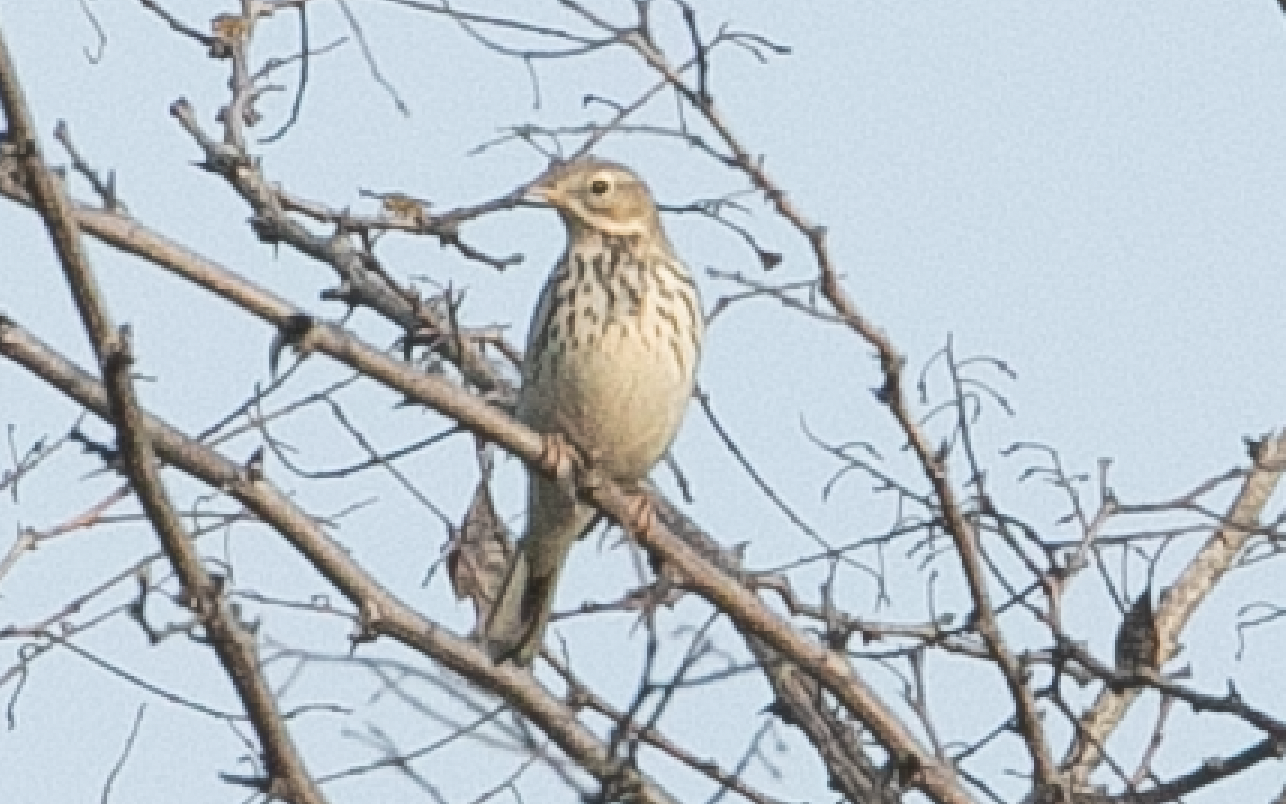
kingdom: Animalia
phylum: Chordata
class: Aves
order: Passeriformes
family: Motacillidae
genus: Anthus
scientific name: Anthus pratensis
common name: Meadow pipit
